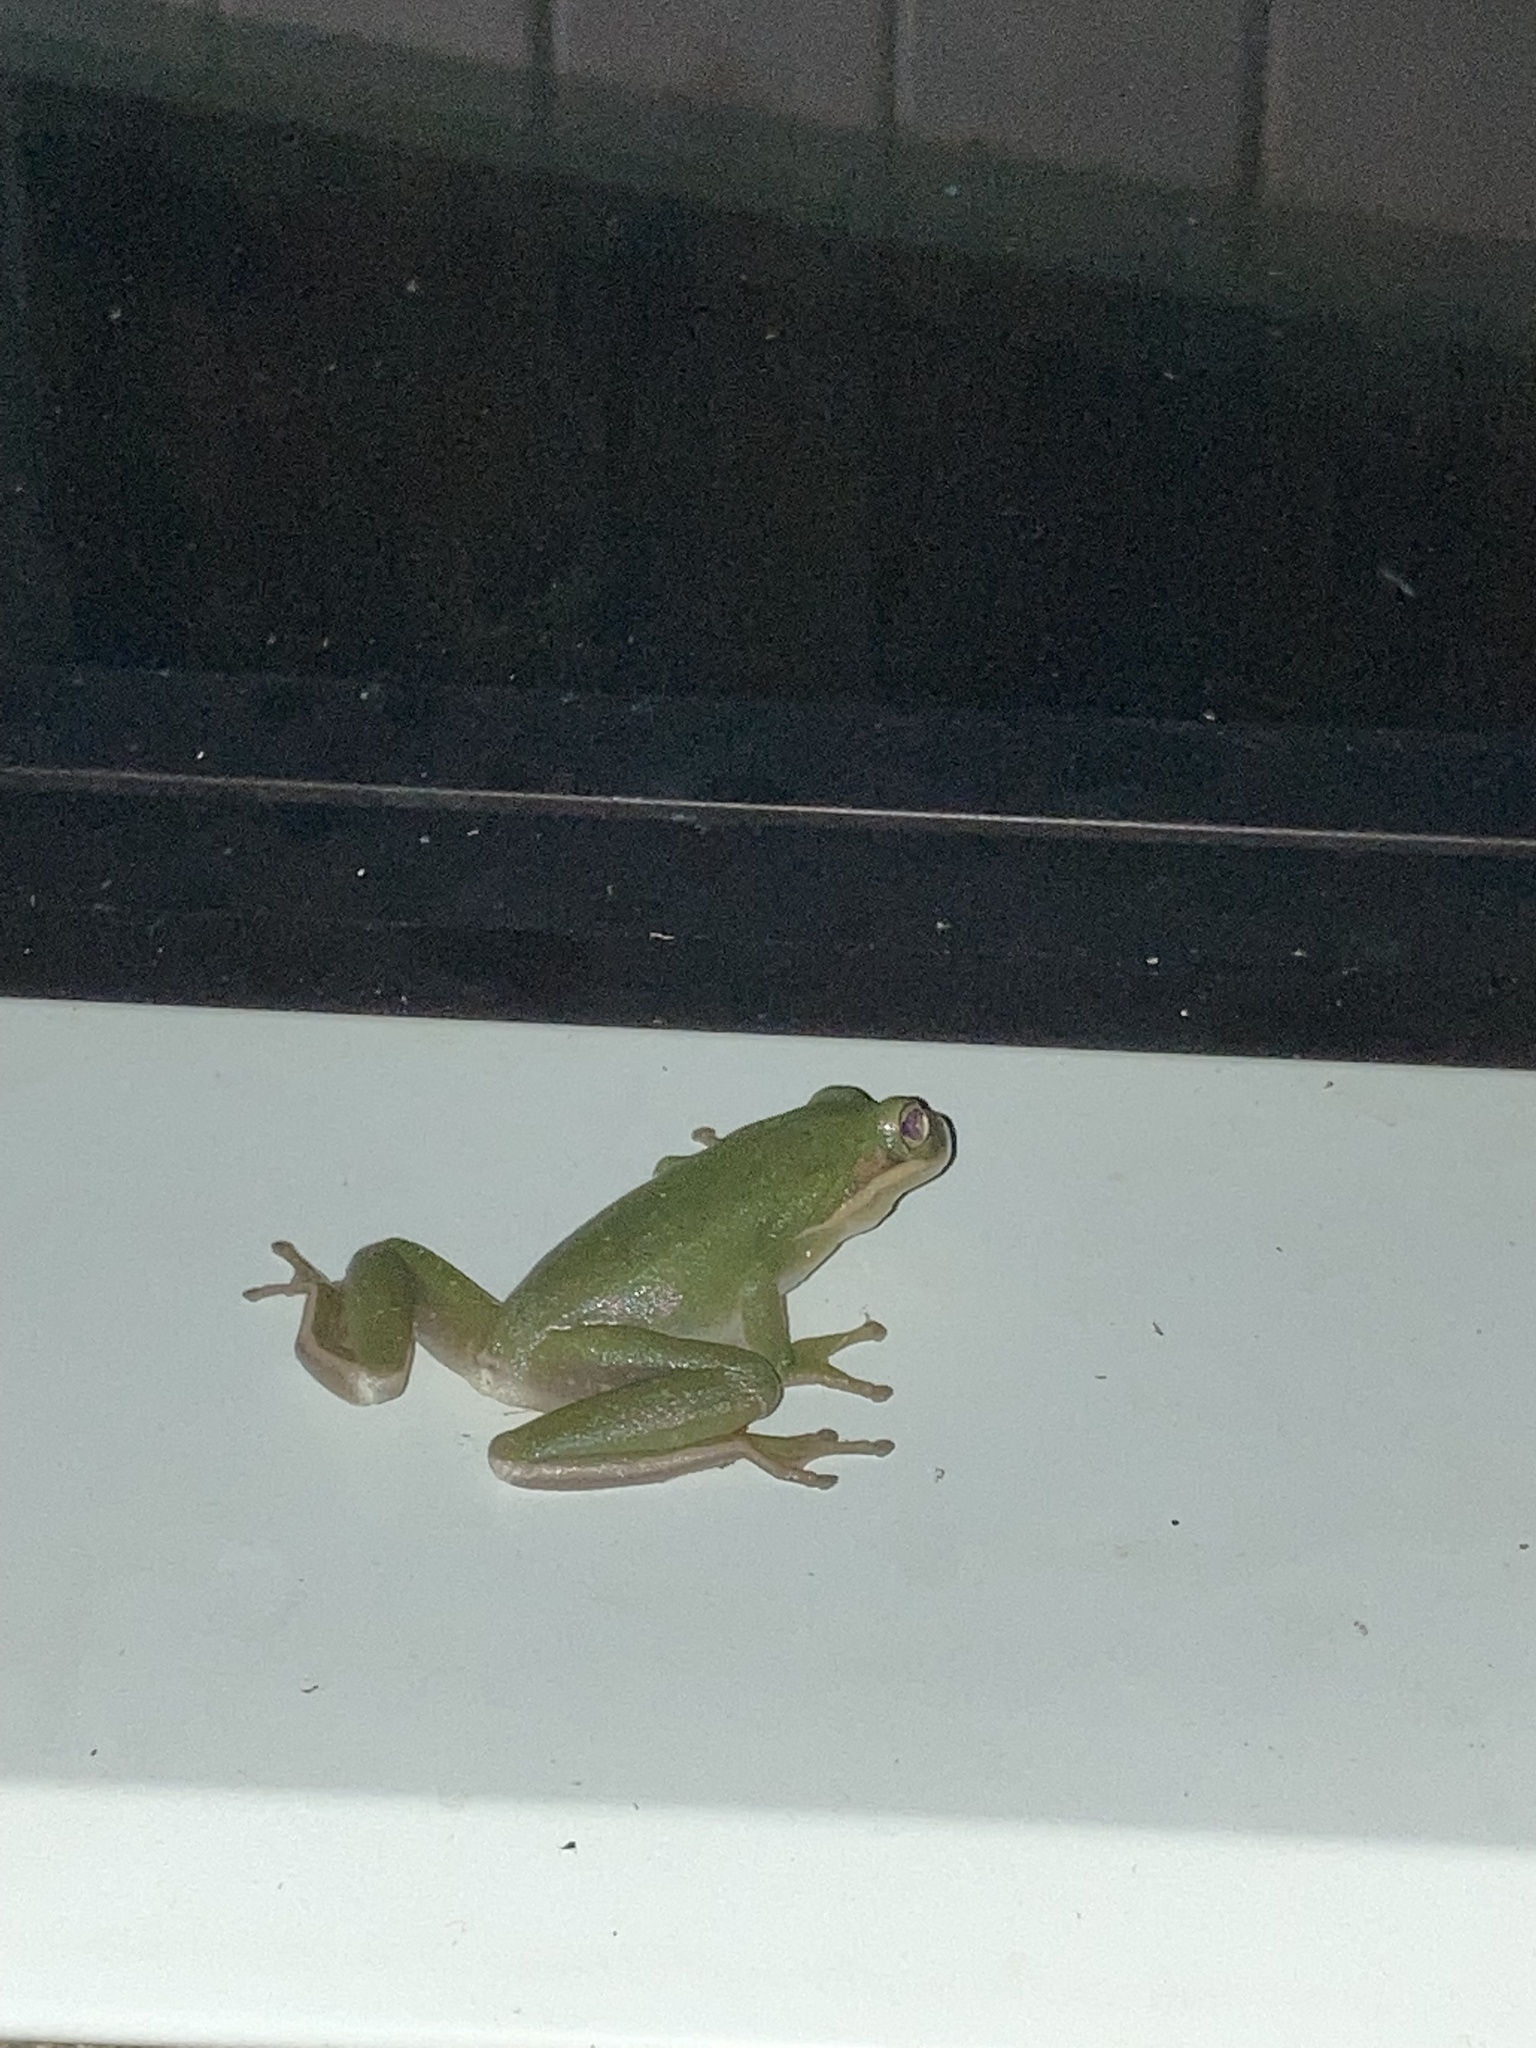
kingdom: Animalia
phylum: Chordata
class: Amphibia
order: Anura
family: Hylidae
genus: Dryophytes
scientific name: Dryophytes cinereus
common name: Green treefrog
